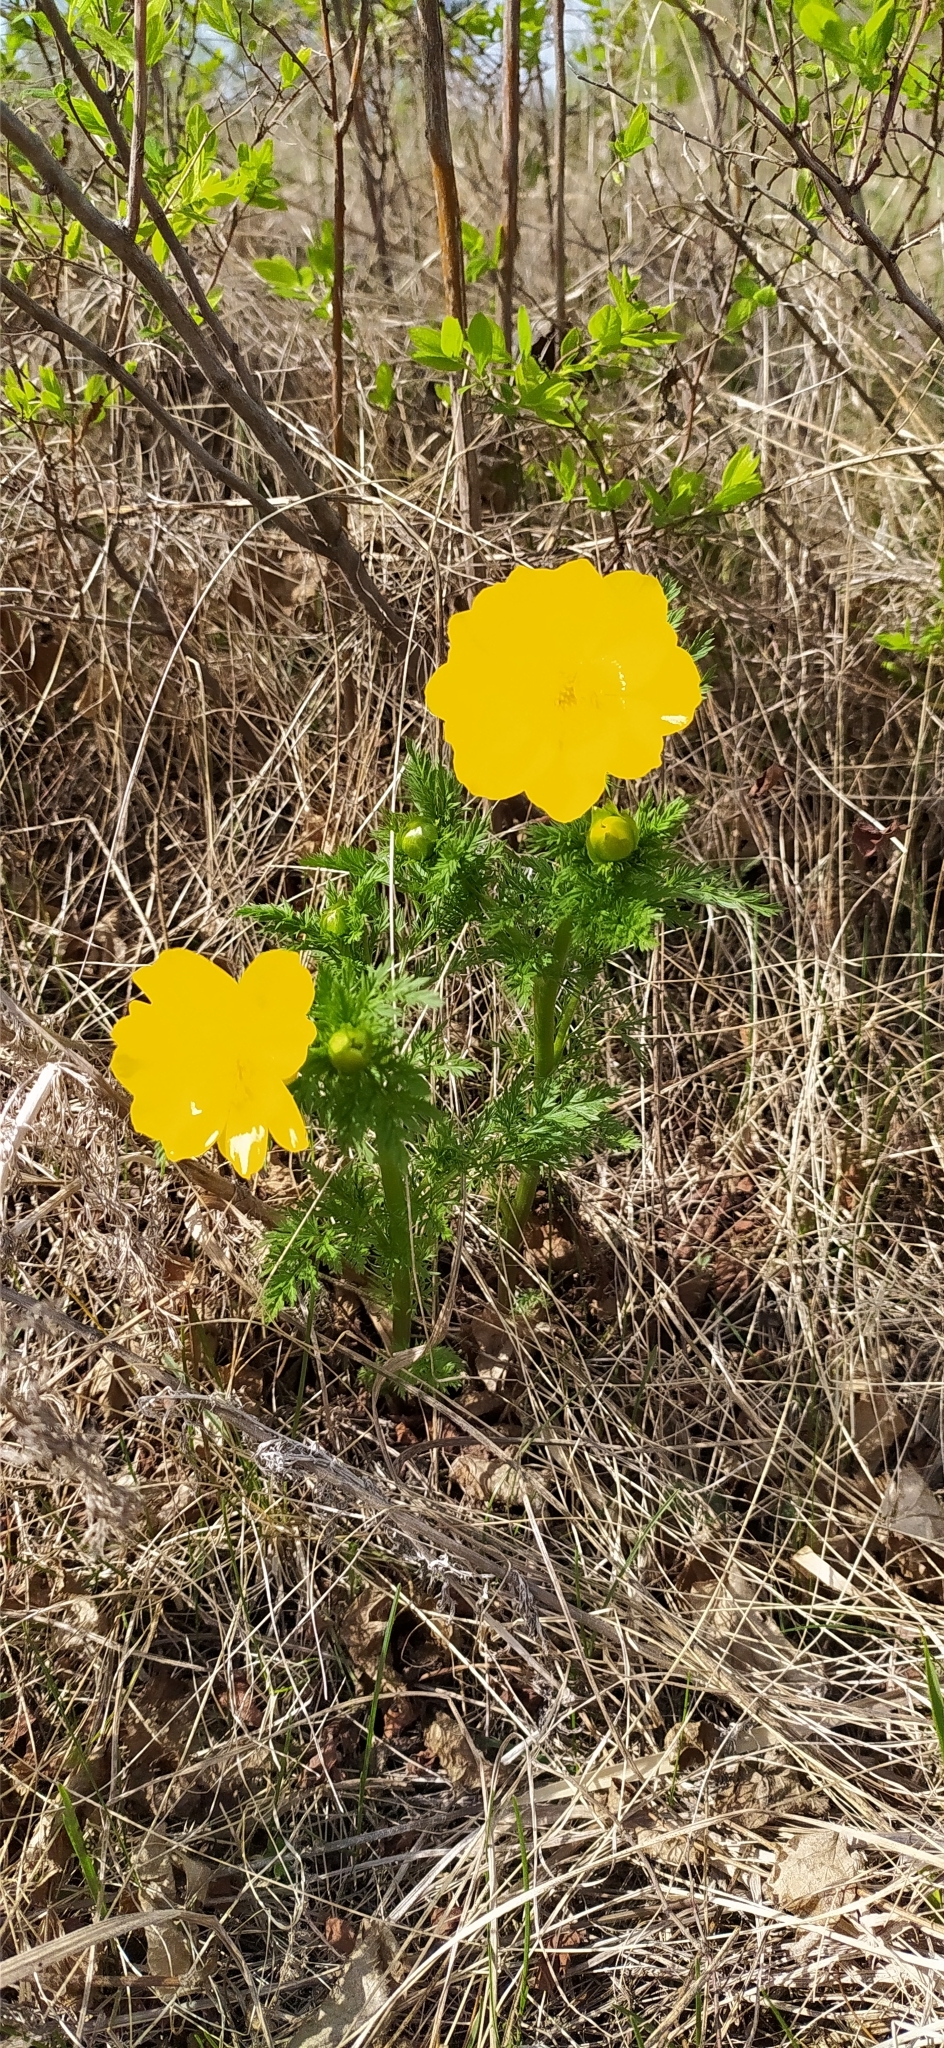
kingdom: Plantae
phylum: Tracheophyta
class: Magnoliopsida
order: Ranunculales
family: Ranunculaceae
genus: Adonis
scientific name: Adonis
